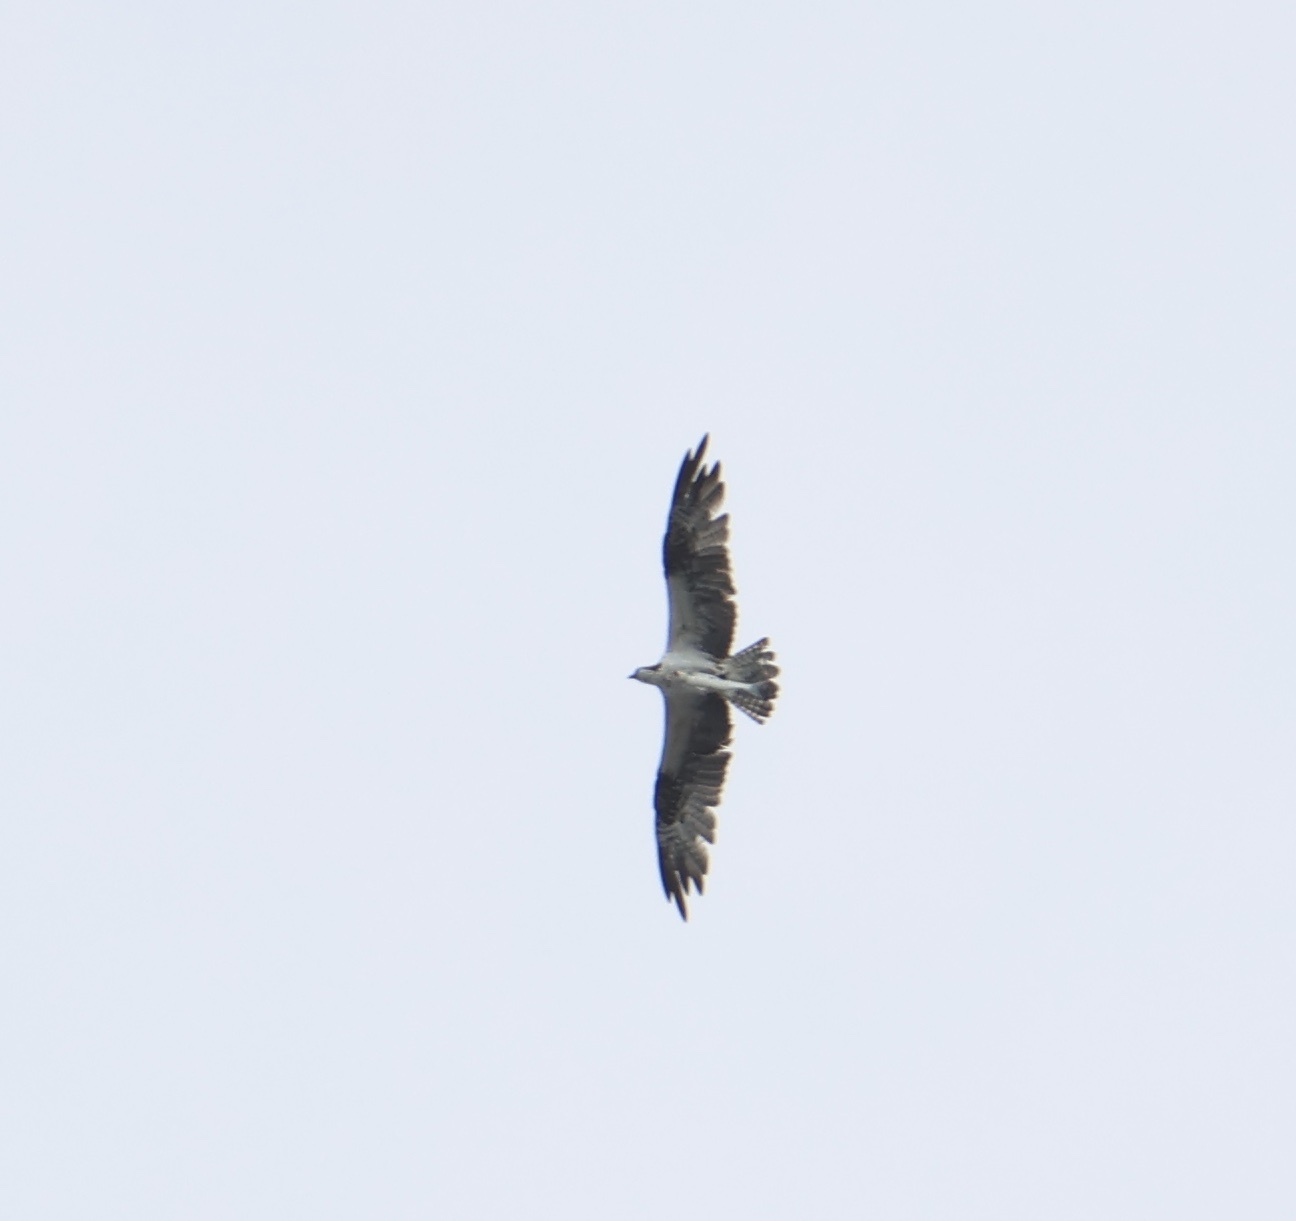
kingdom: Animalia
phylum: Chordata
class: Aves
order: Accipitriformes
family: Pandionidae
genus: Pandion
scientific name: Pandion haliaetus
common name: Osprey
